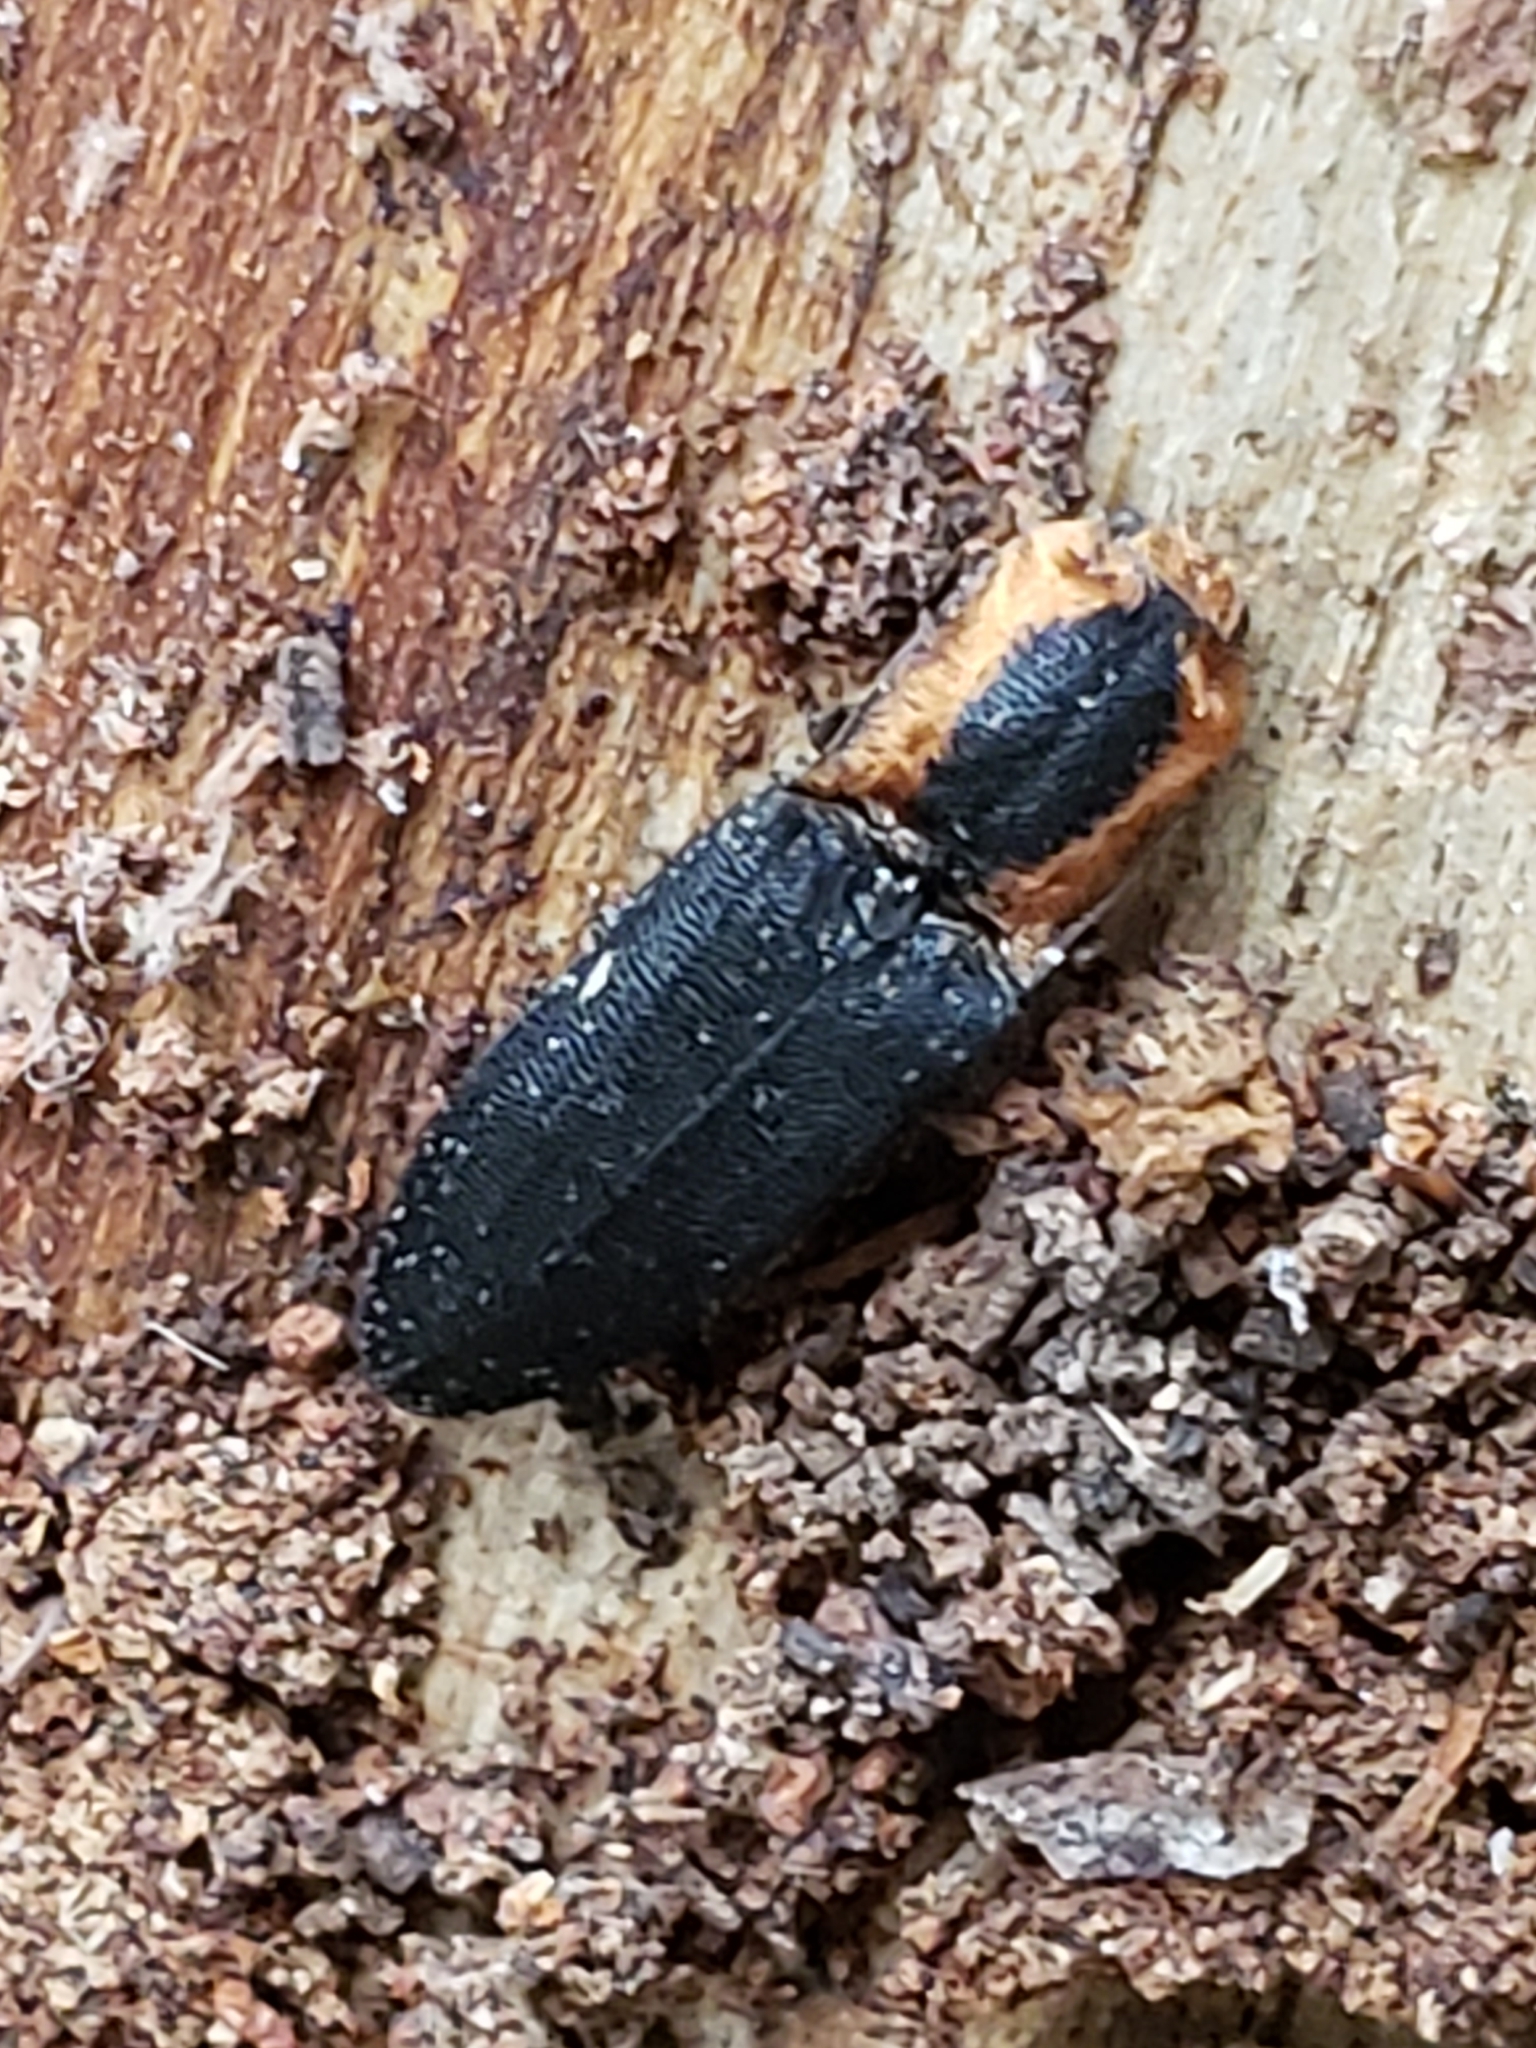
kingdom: Animalia
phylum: Arthropoda
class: Insecta
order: Coleoptera
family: Elateridae
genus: Lacon
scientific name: Lacon discoideus
